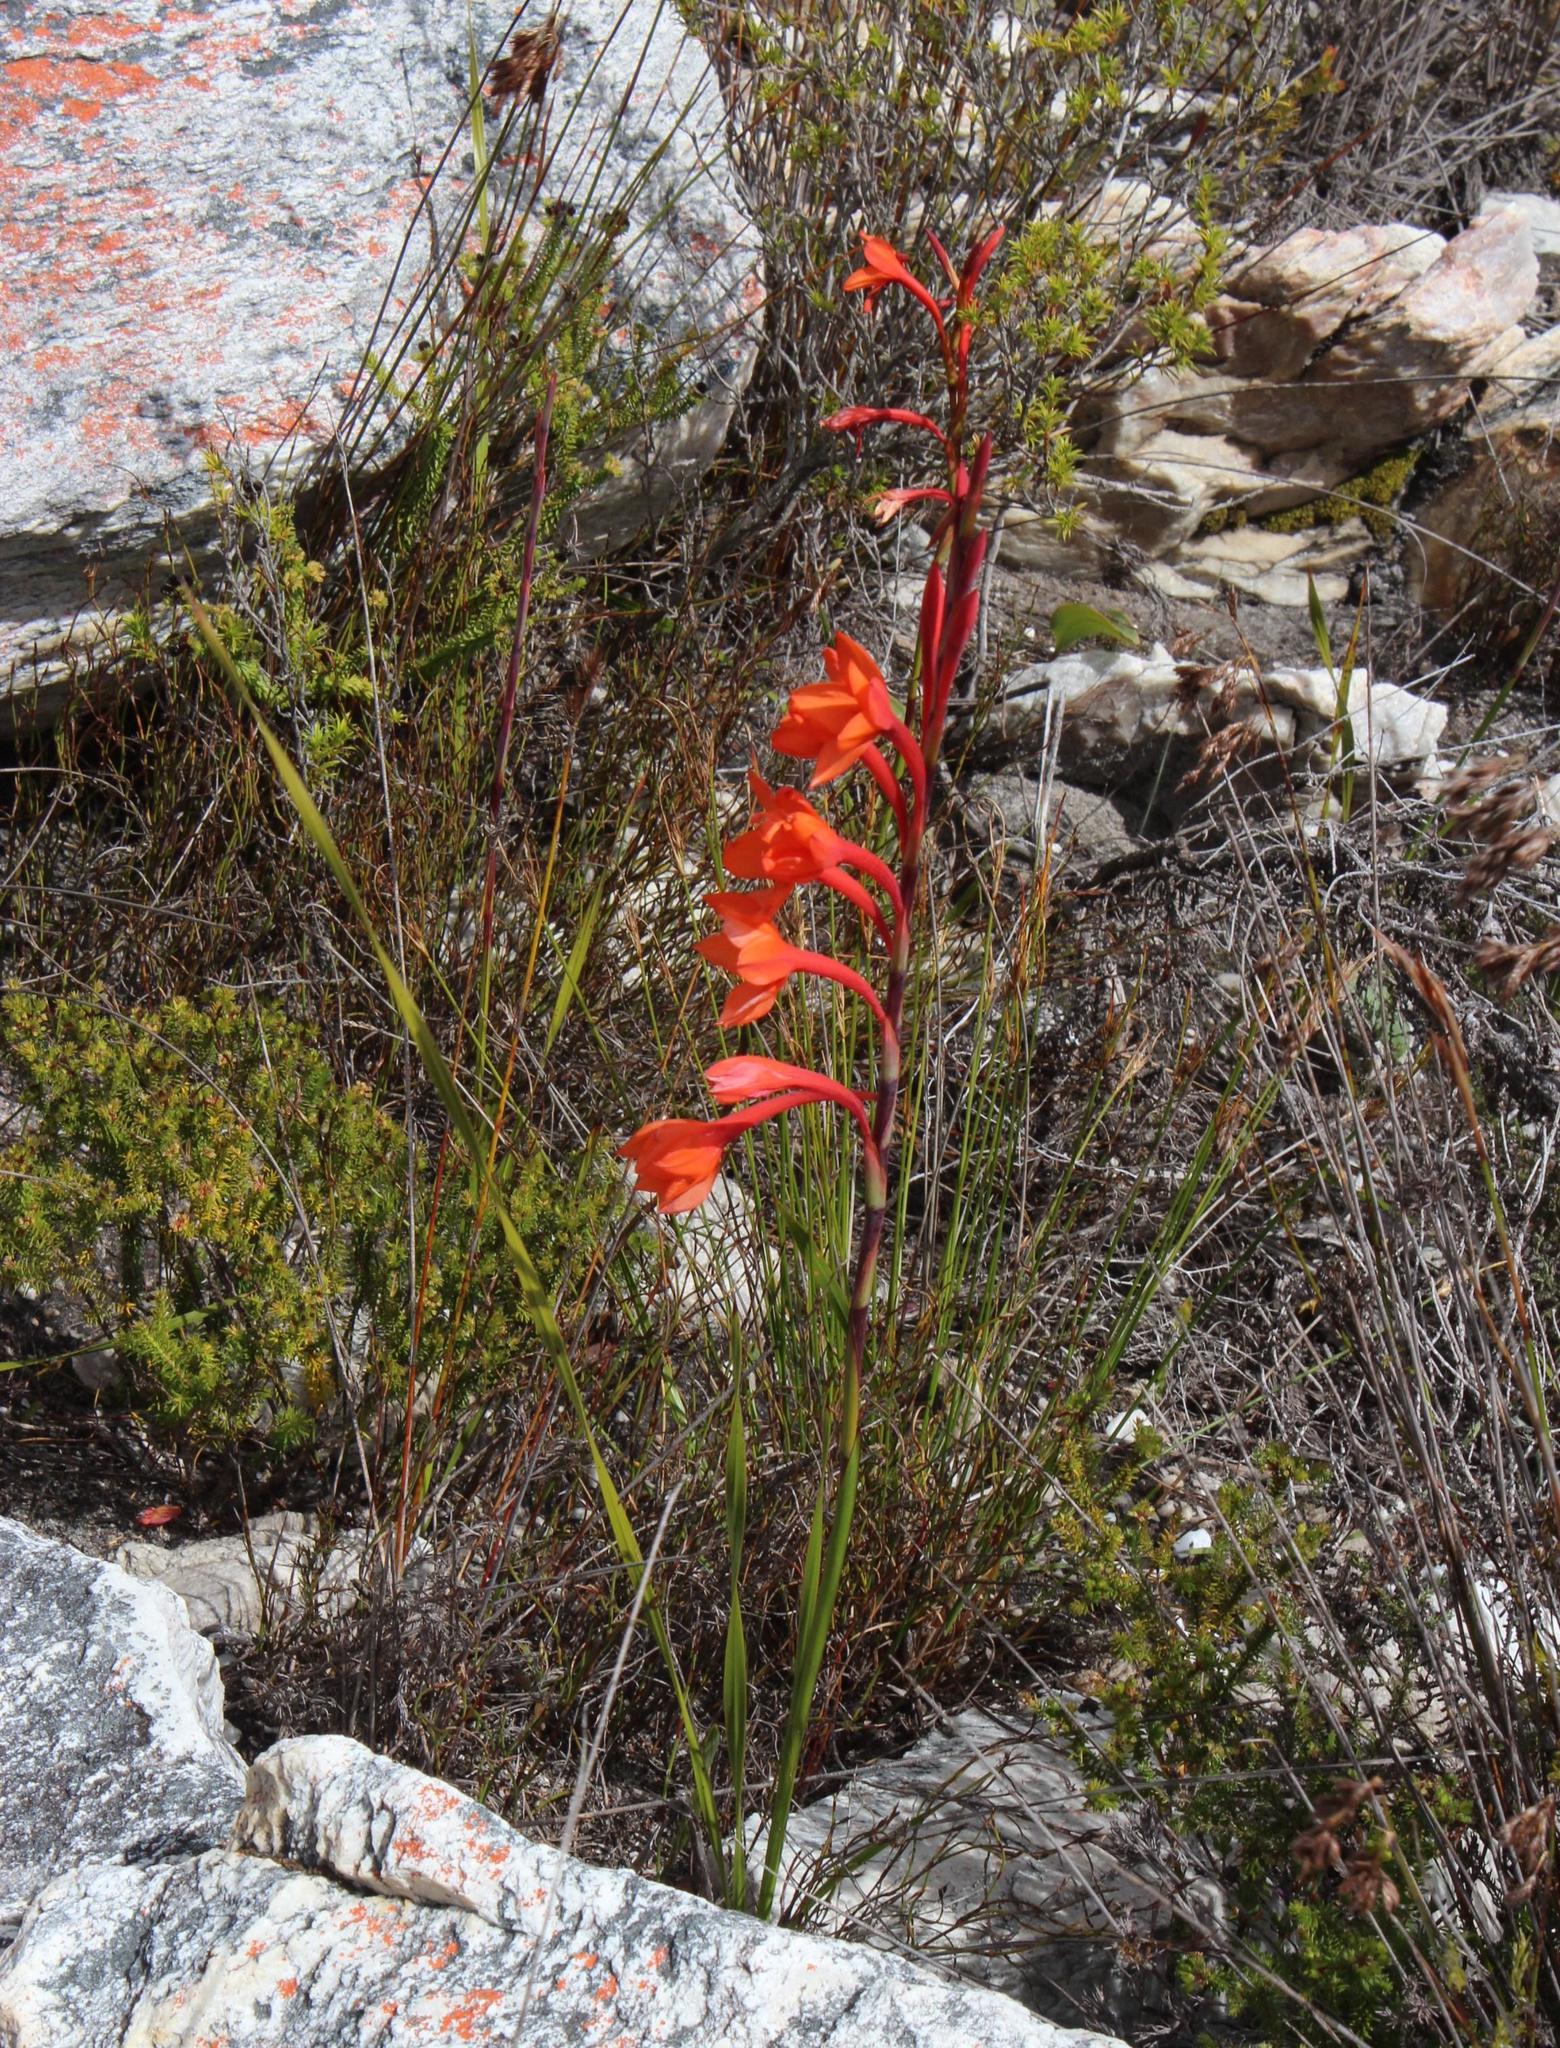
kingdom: Plantae
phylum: Tracheophyta
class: Liliopsida
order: Asparagales
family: Iridaceae
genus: Watsonia
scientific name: Watsonia stenosiphon
